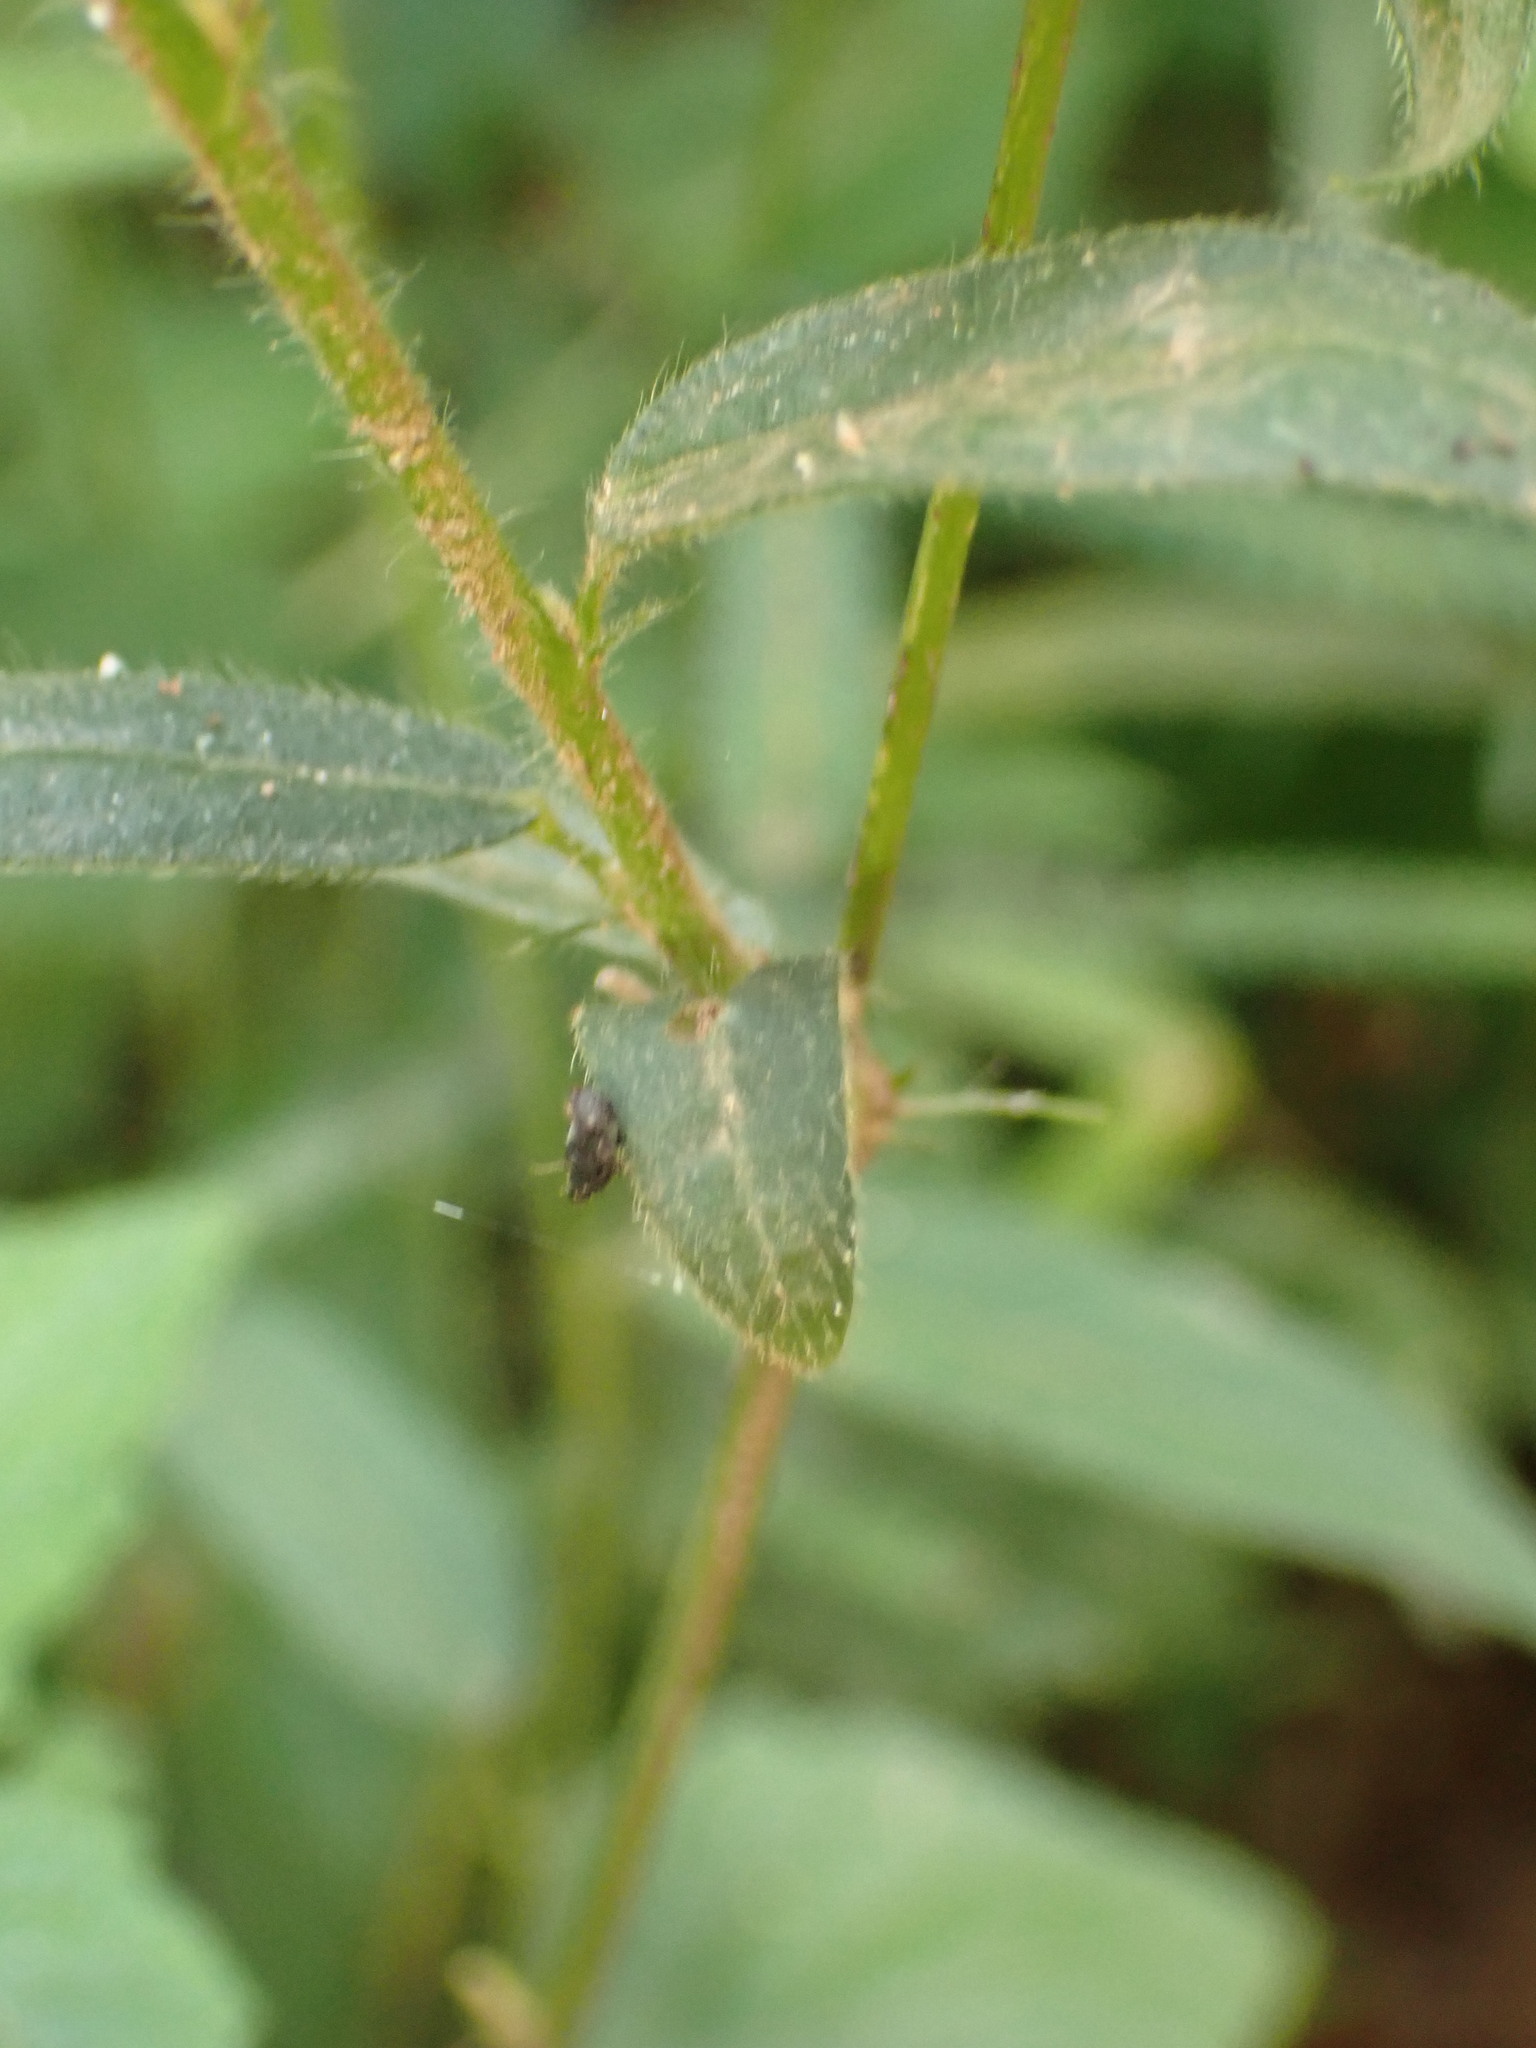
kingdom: Plantae
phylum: Tracheophyta
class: Magnoliopsida
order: Malvales
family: Malvaceae
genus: Sida
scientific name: Sida linifolia
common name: Flaxleaf fanpetals
